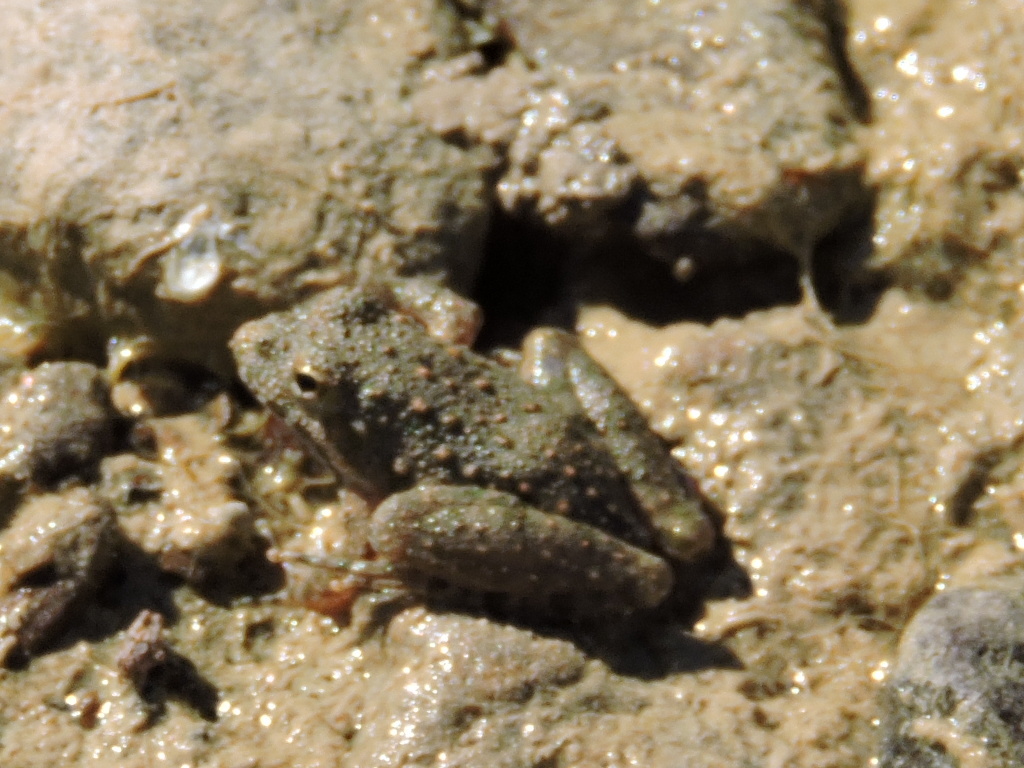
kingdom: Animalia
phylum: Chordata
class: Amphibia
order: Anura
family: Hylidae
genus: Acris
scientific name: Acris blanchardi
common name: Blanchard's cricket frog
